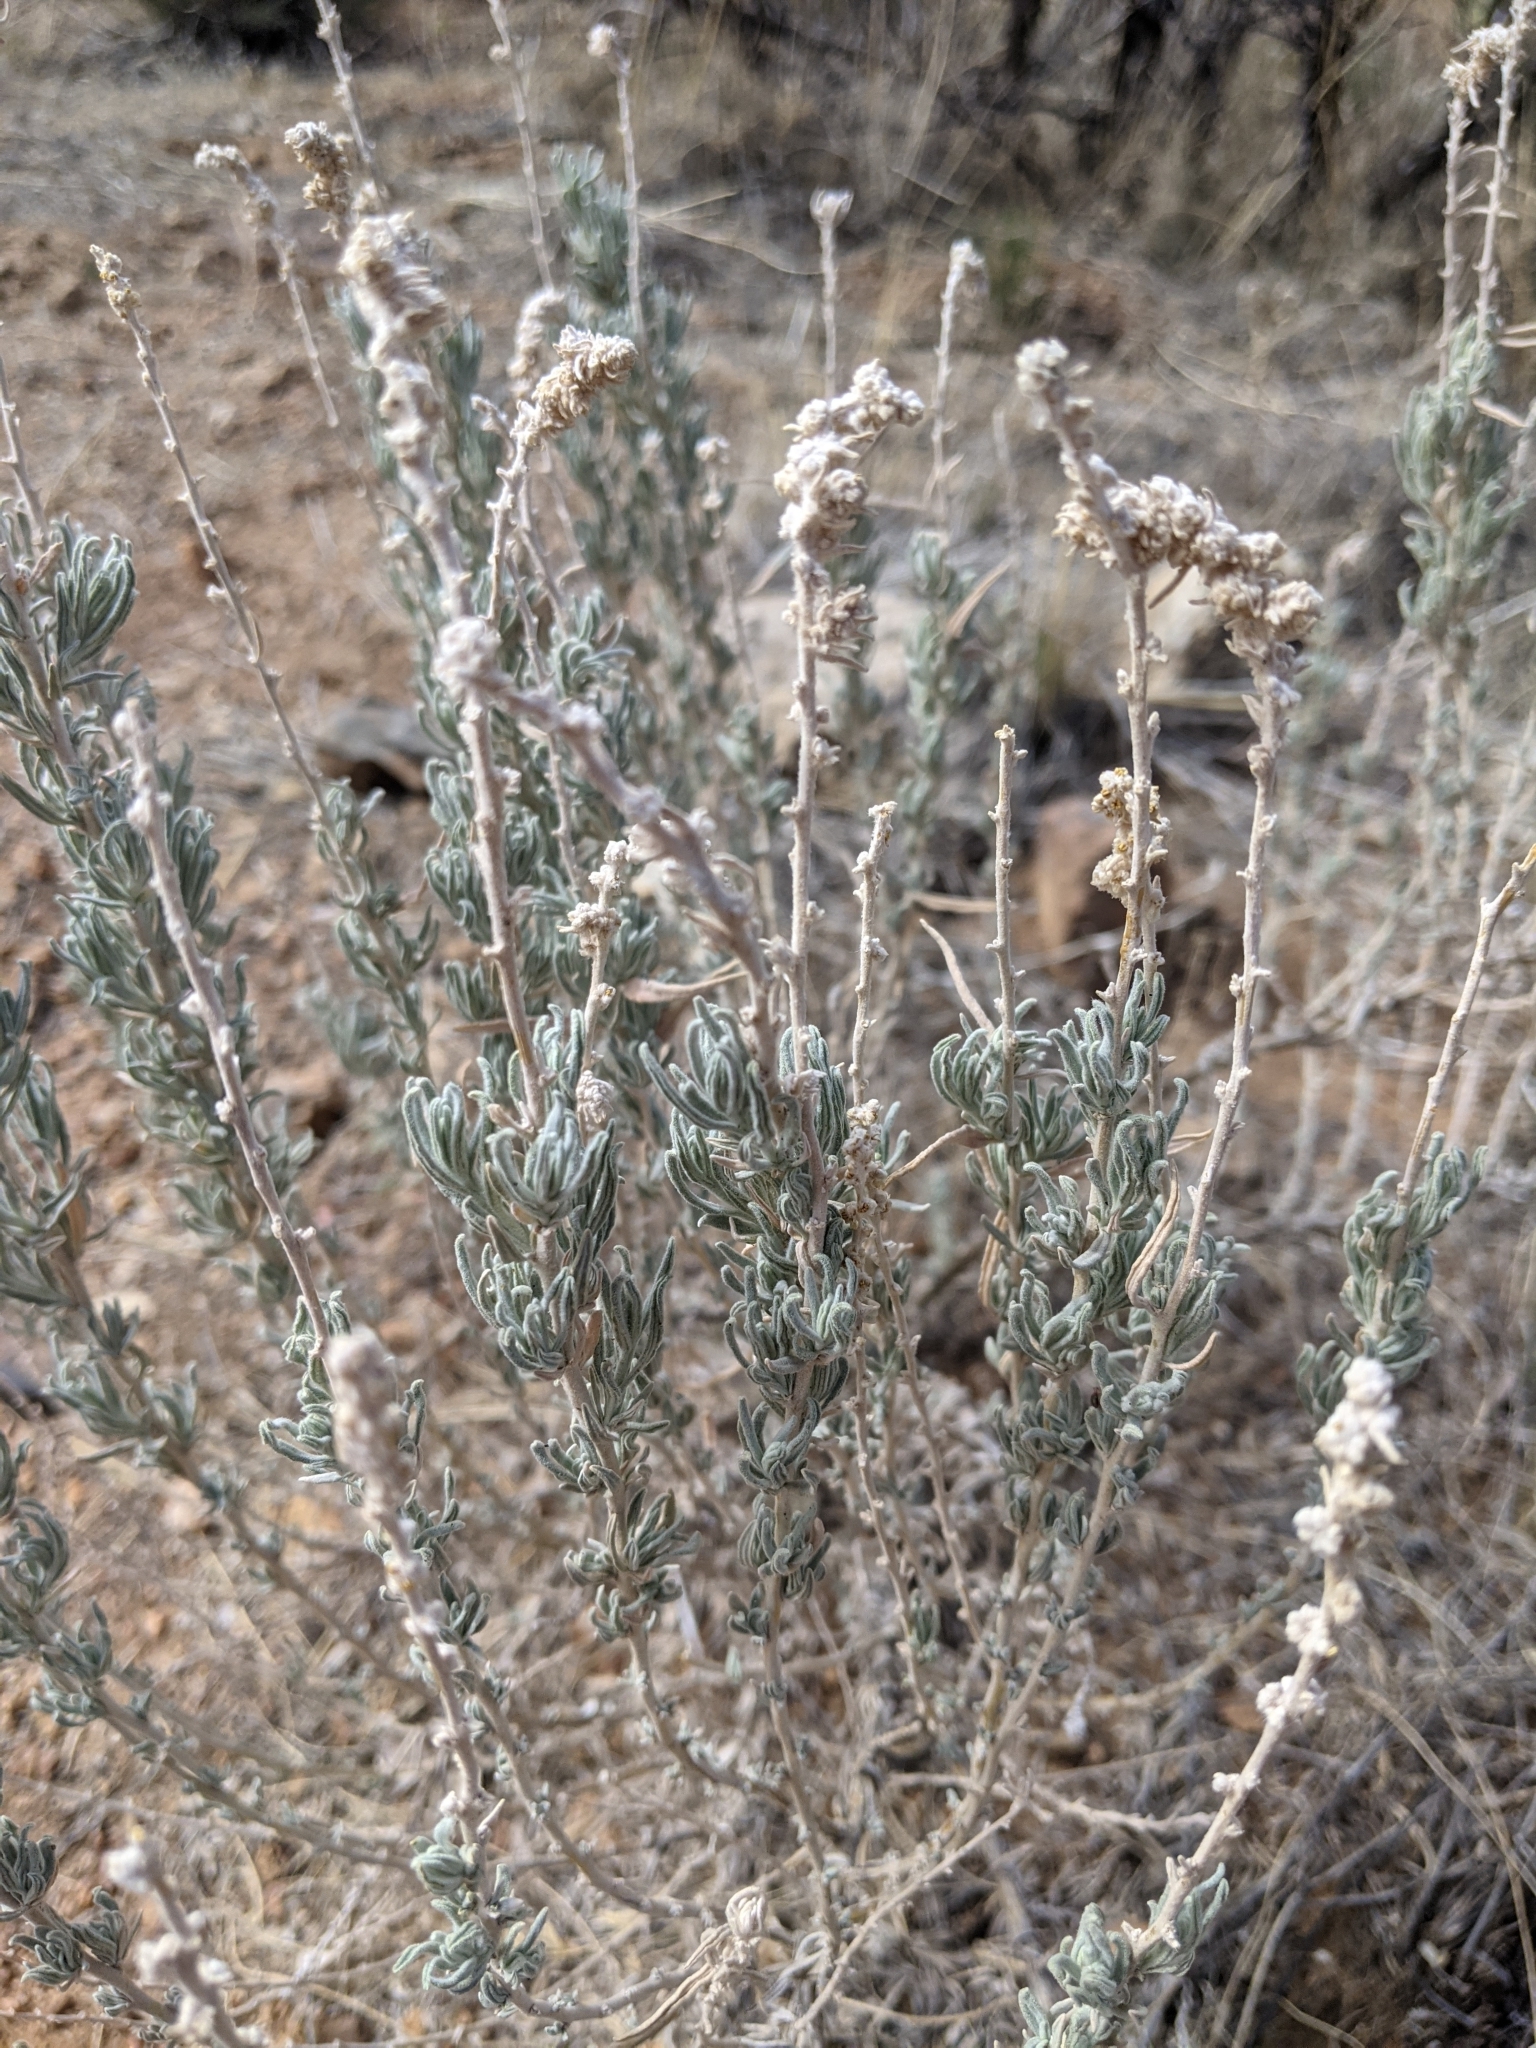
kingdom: Plantae
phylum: Tracheophyta
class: Magnoliopsida
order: Caryophyllales
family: Amaranthaceae
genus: Krascheninnikovia
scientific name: Krascheninnikovia lanata
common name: Winterfat
